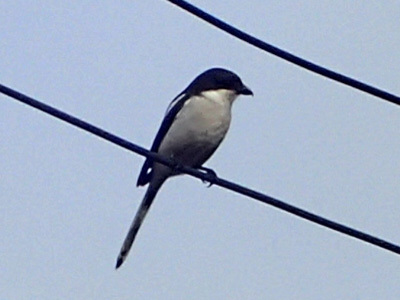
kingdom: Animalia
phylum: Chordata
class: Aves
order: Passeriformes
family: Laniidae
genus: Lanius
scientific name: Lanius collaris
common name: Southern fiscal
